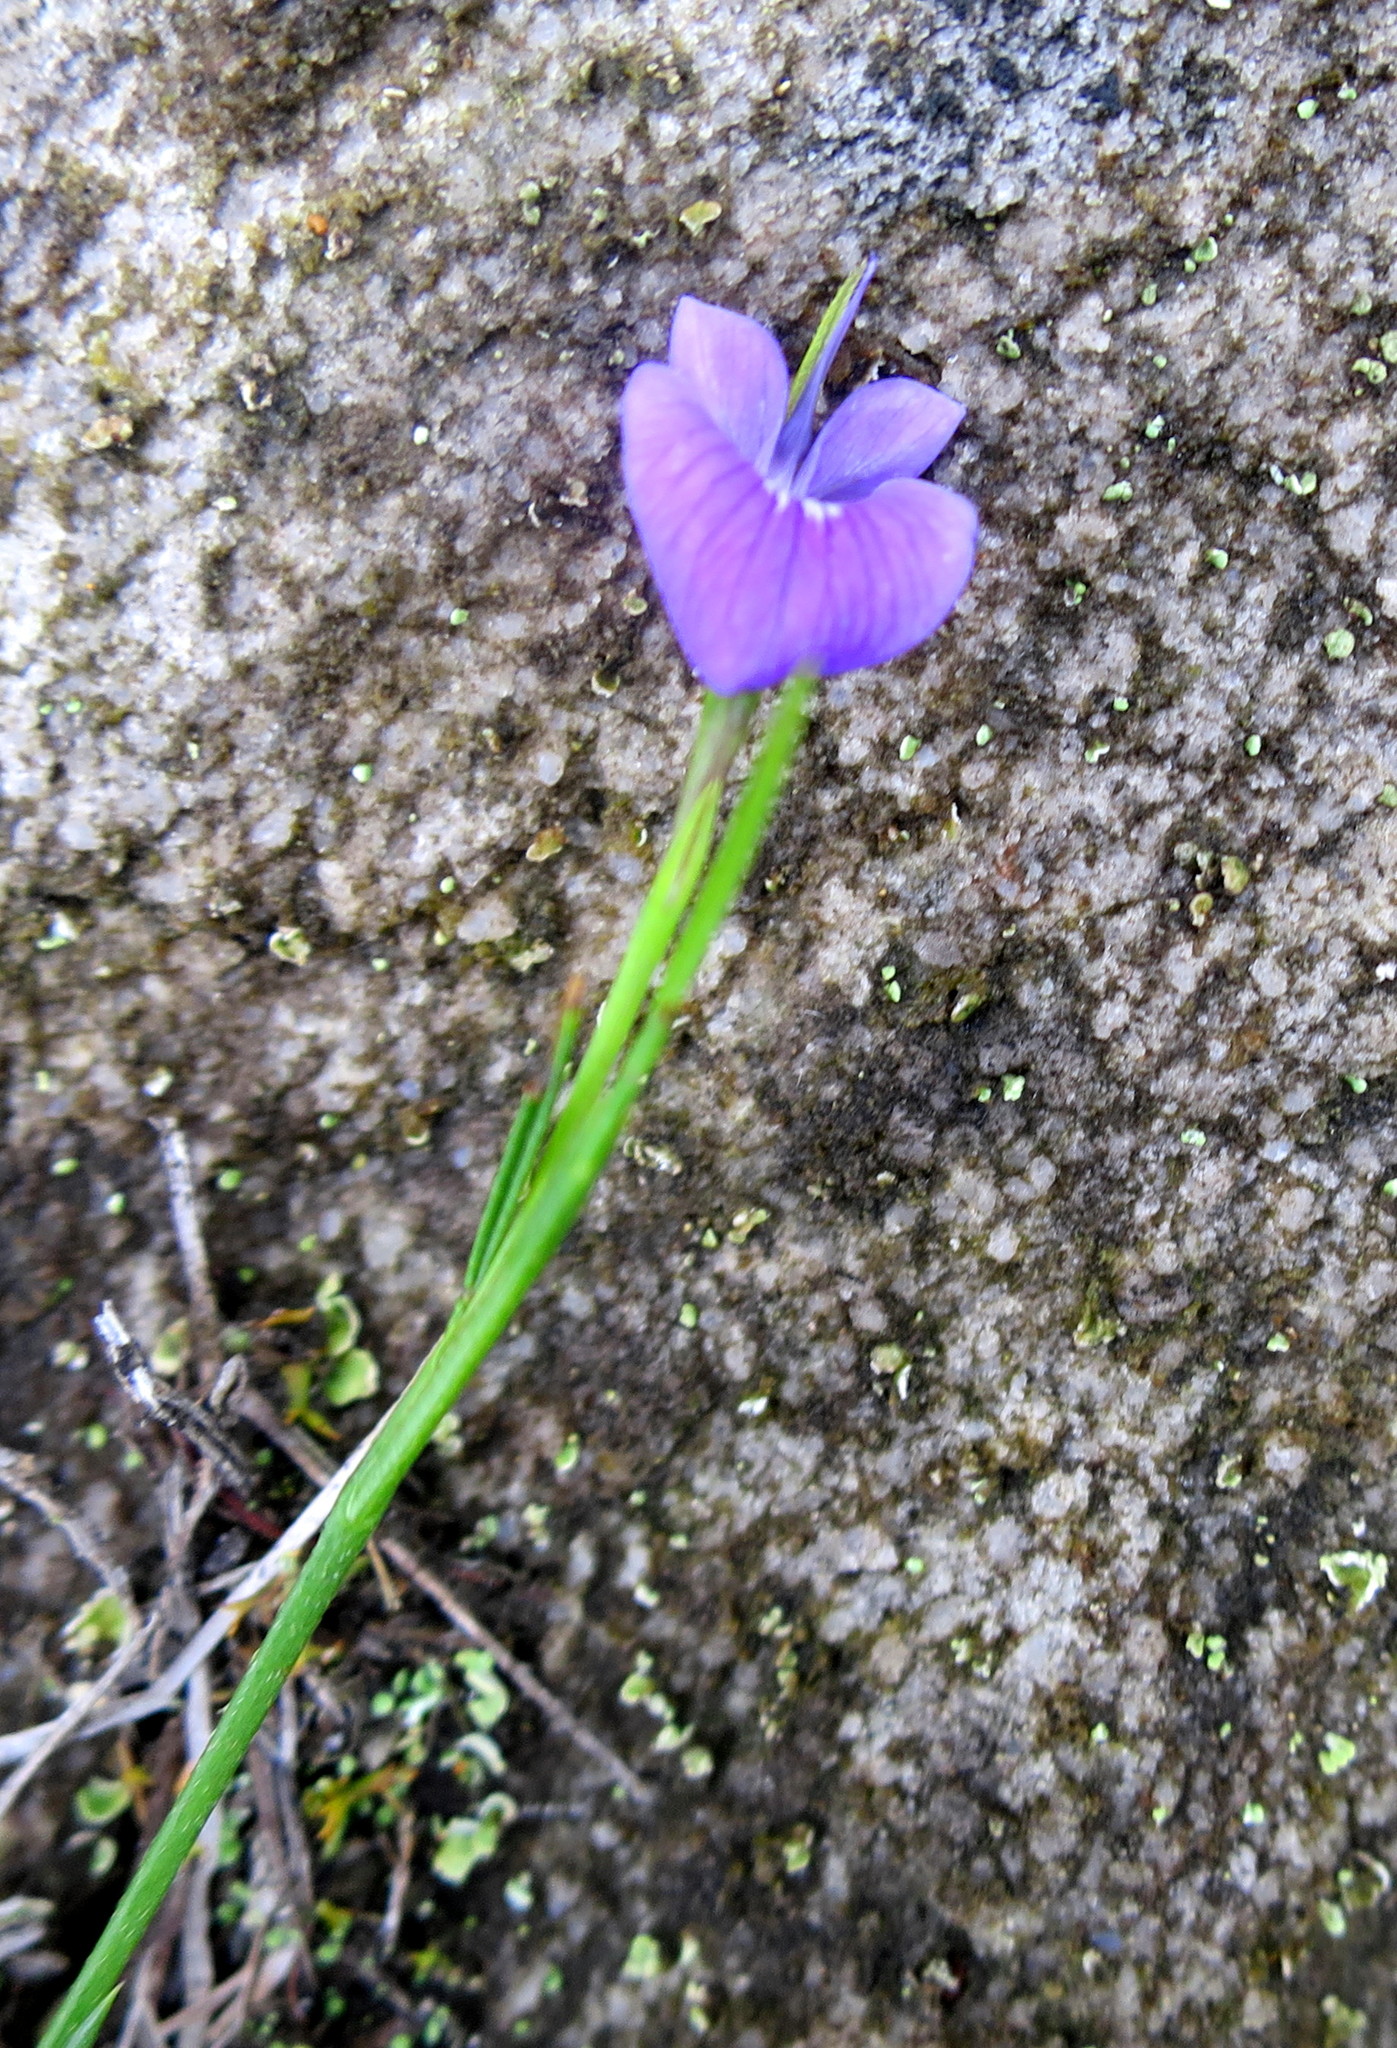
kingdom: Plantae
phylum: Tracheophyta
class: Magnoliopsida
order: Fabales
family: Fabaceae
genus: Psoralea
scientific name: Psoralea trullata
